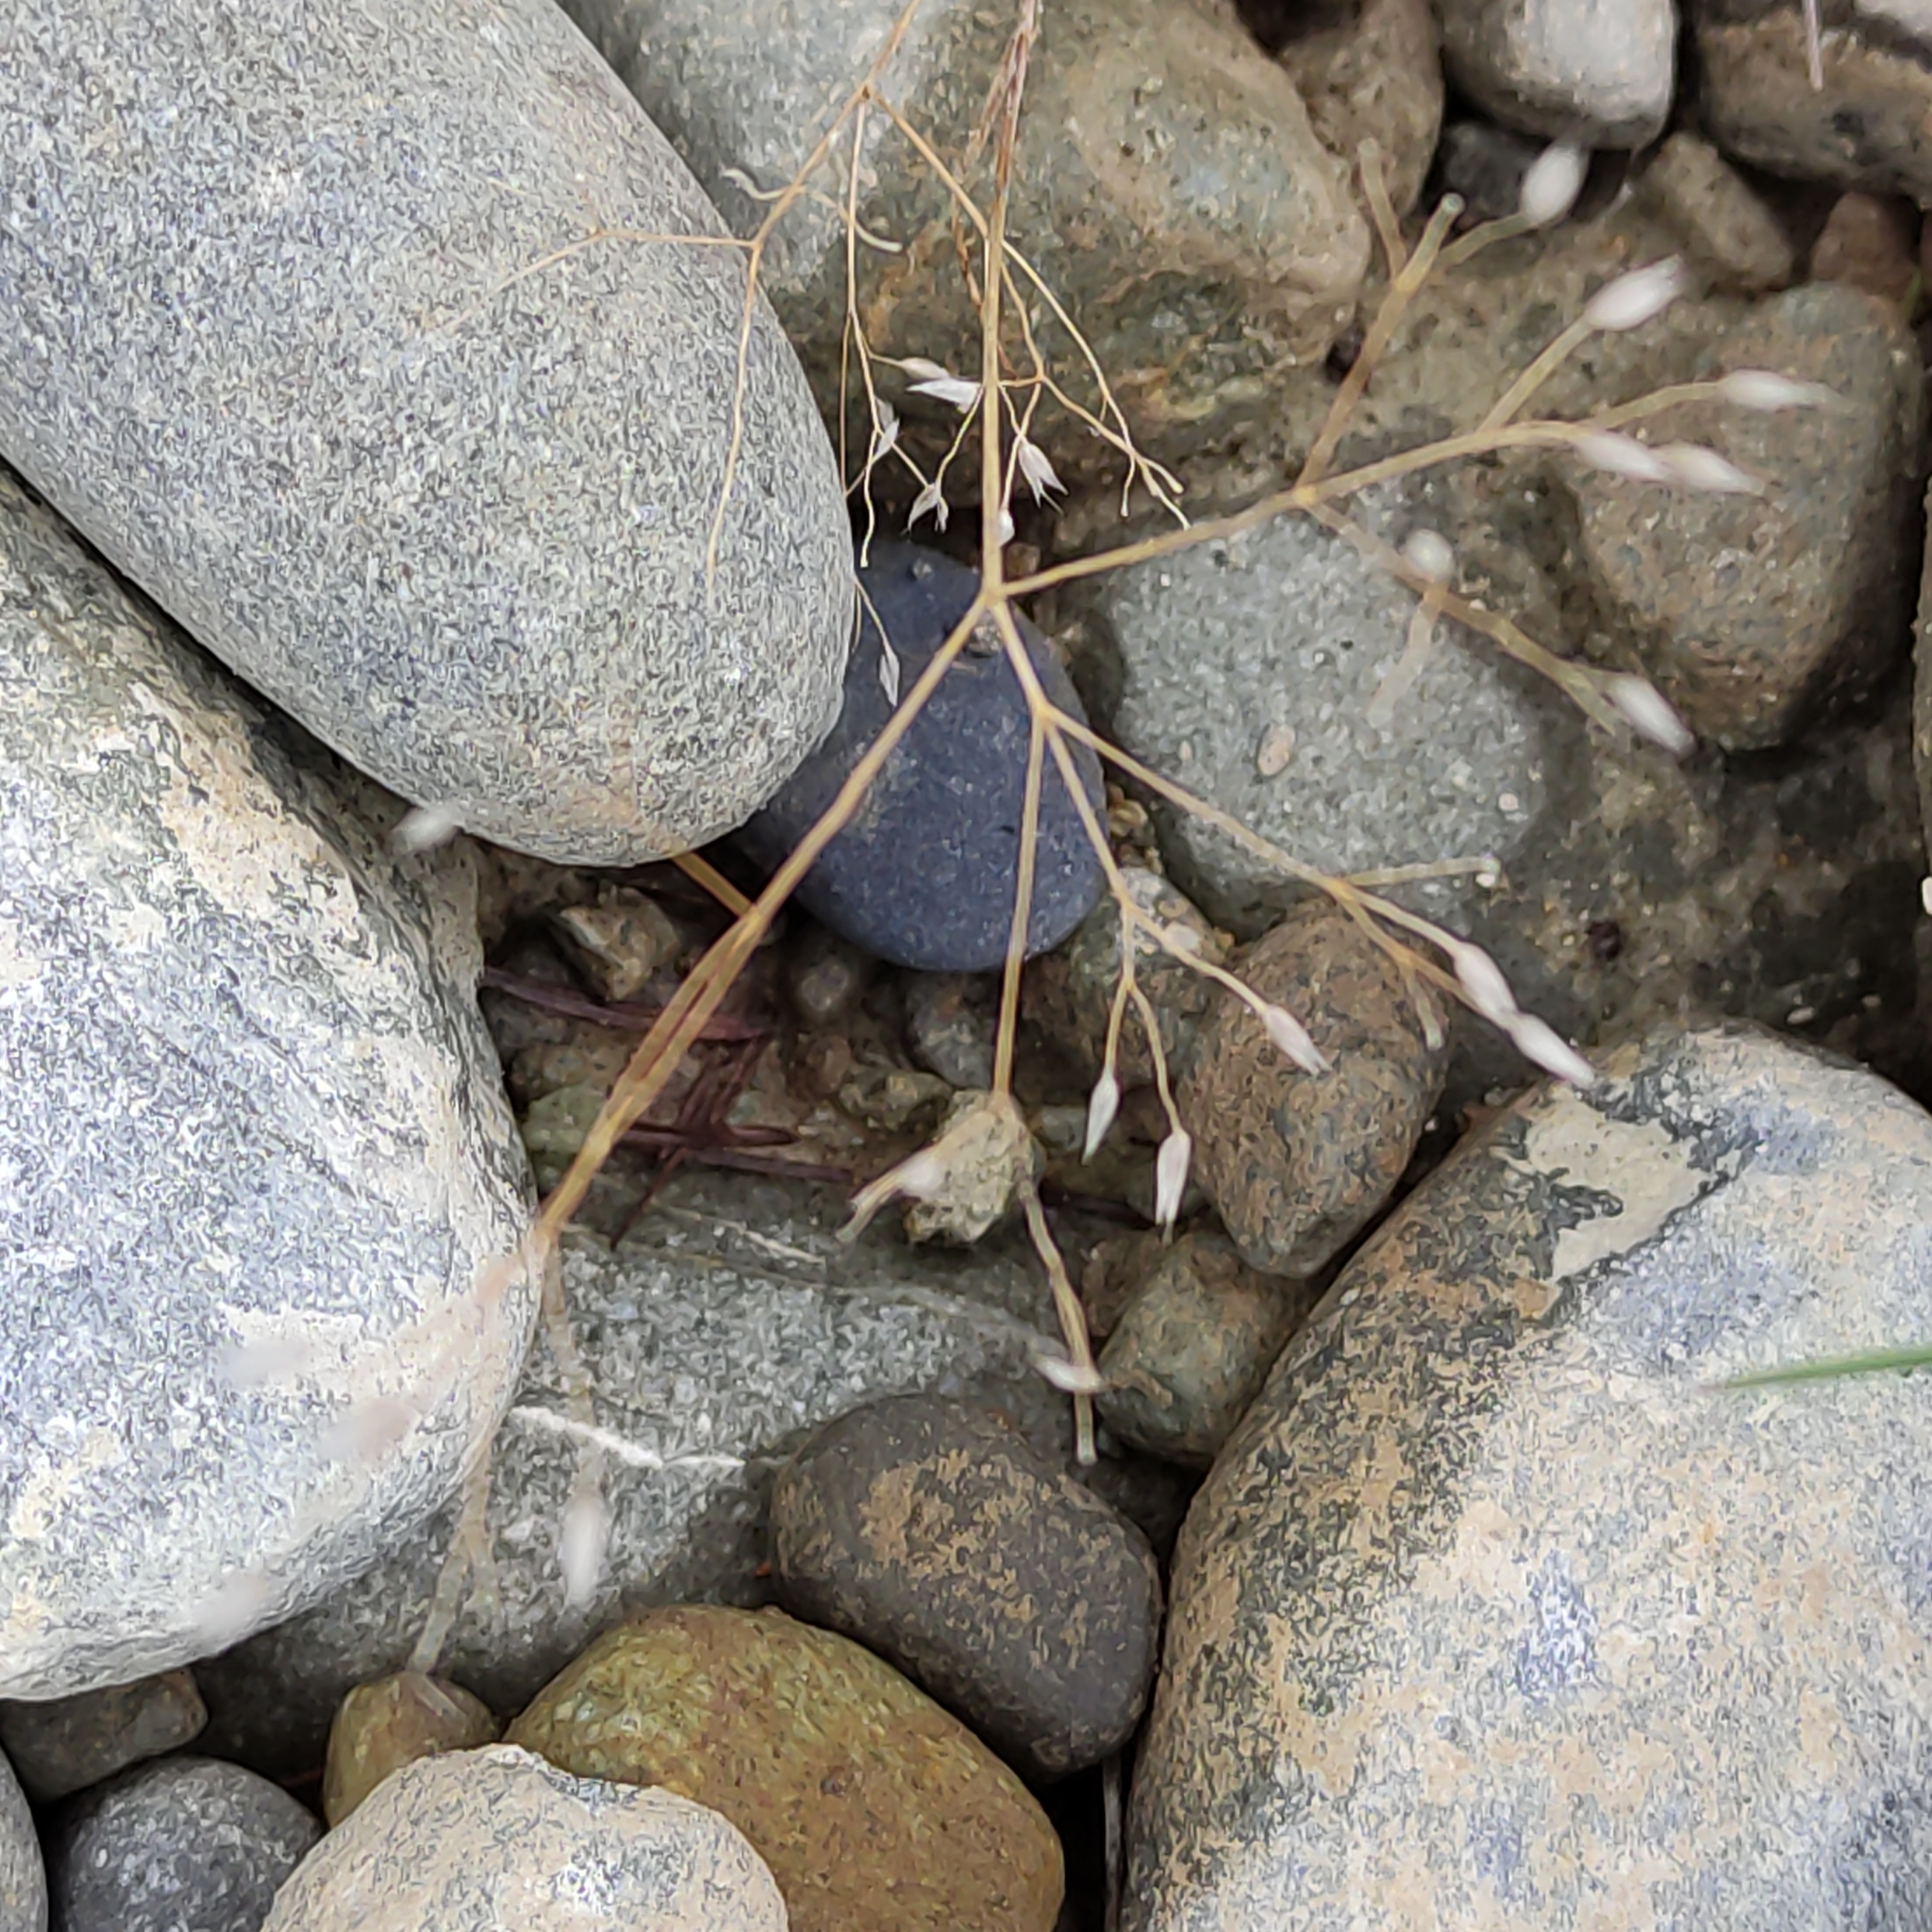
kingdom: Plantae
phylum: Tracheophyta
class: Liliopsida
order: Poales
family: Poaceae
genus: Aira
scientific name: Aira caryophyllea
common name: Silver hairgrass
